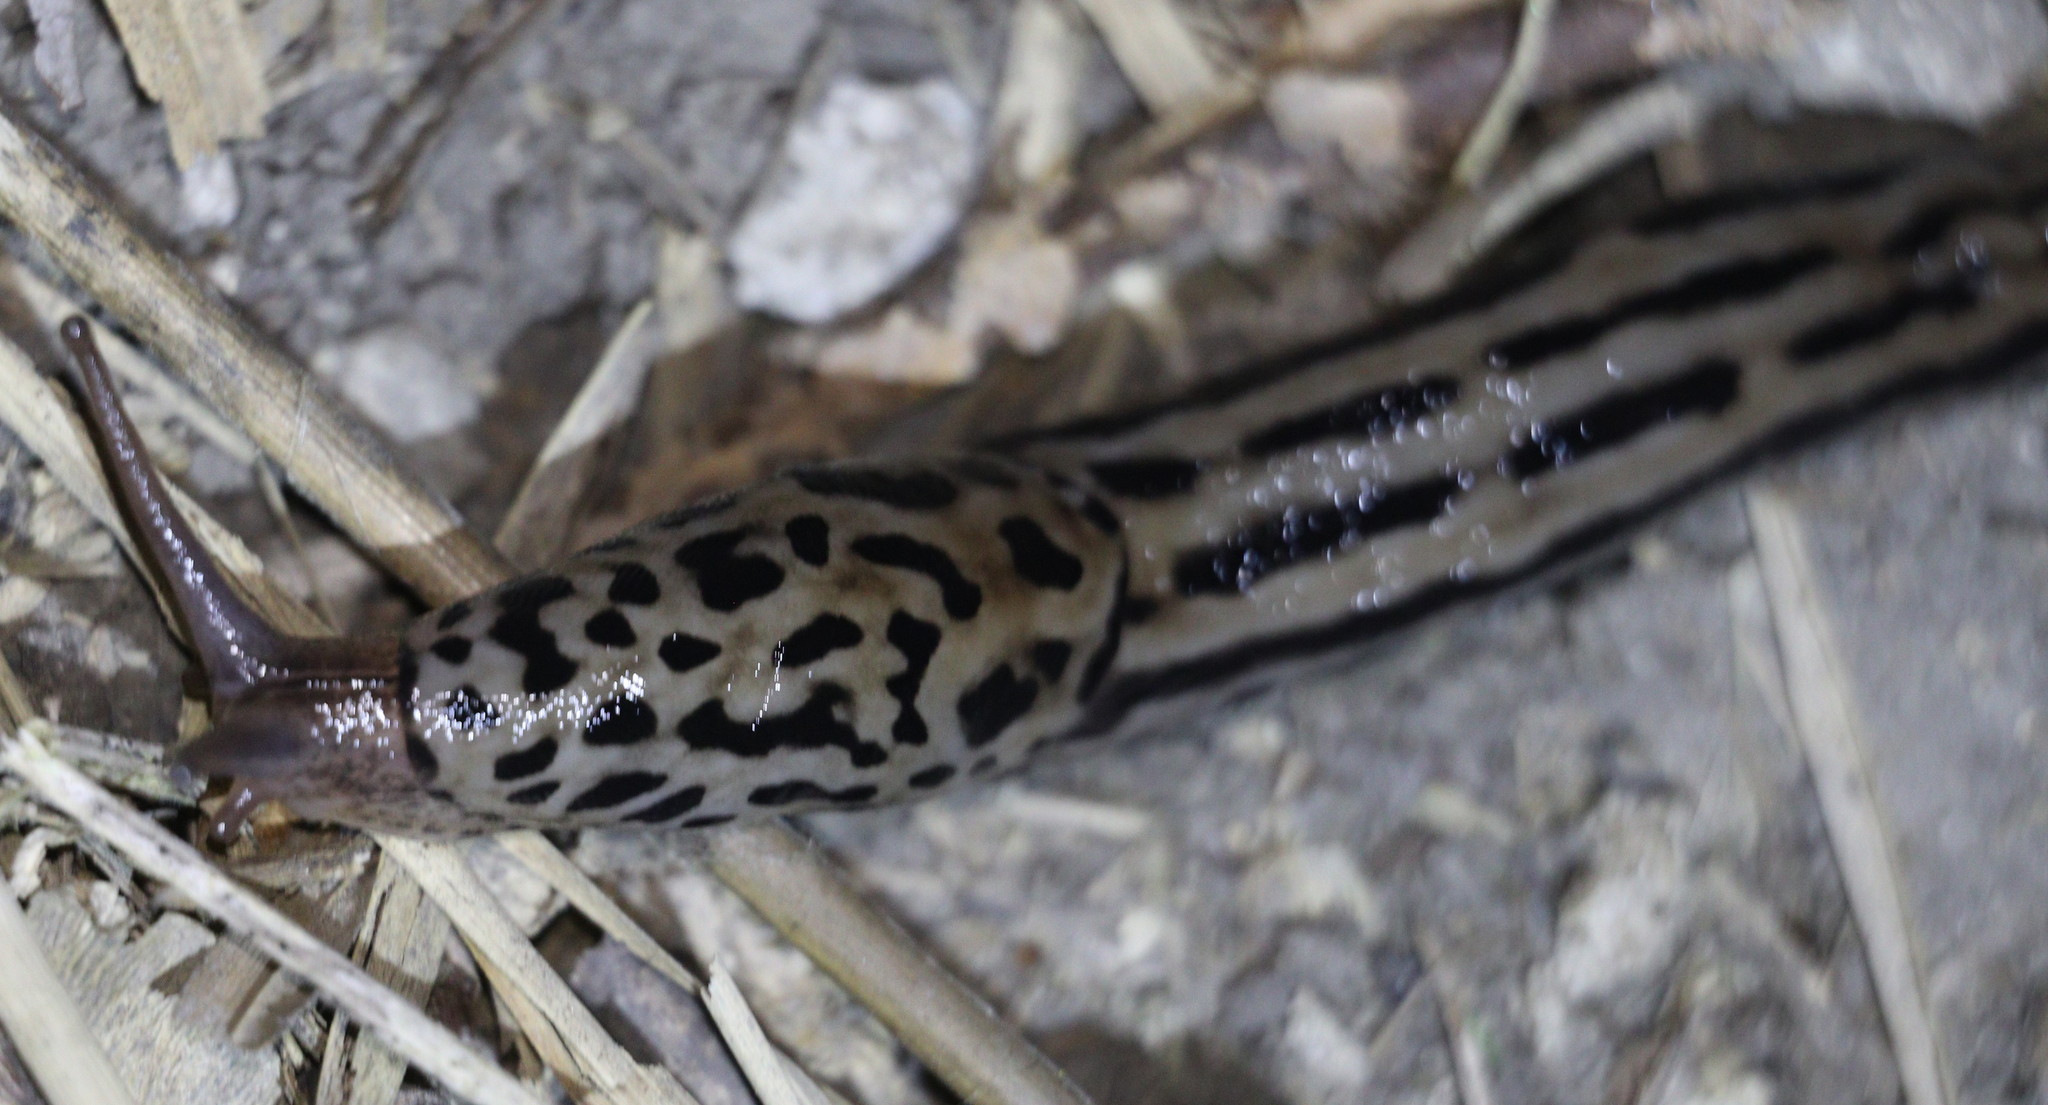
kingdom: Animalia
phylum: Mollusca
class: Gastropoda
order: Stylommatophora
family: Limacidae
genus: Limax
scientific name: Limax maximus
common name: Great grey slug
